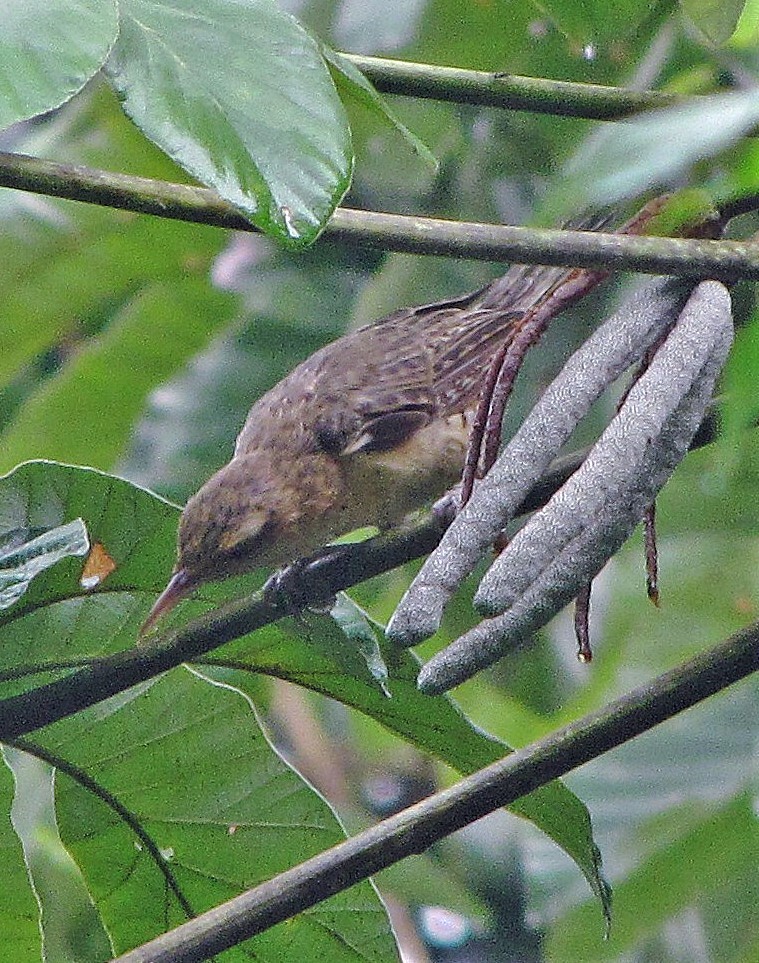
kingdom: Animalia
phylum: Chordata
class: Aves
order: Passeriformes
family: Troglodytidae
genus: Campylorhynchus
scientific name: Campylorhynchus turdinus
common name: Thrush-like wren
